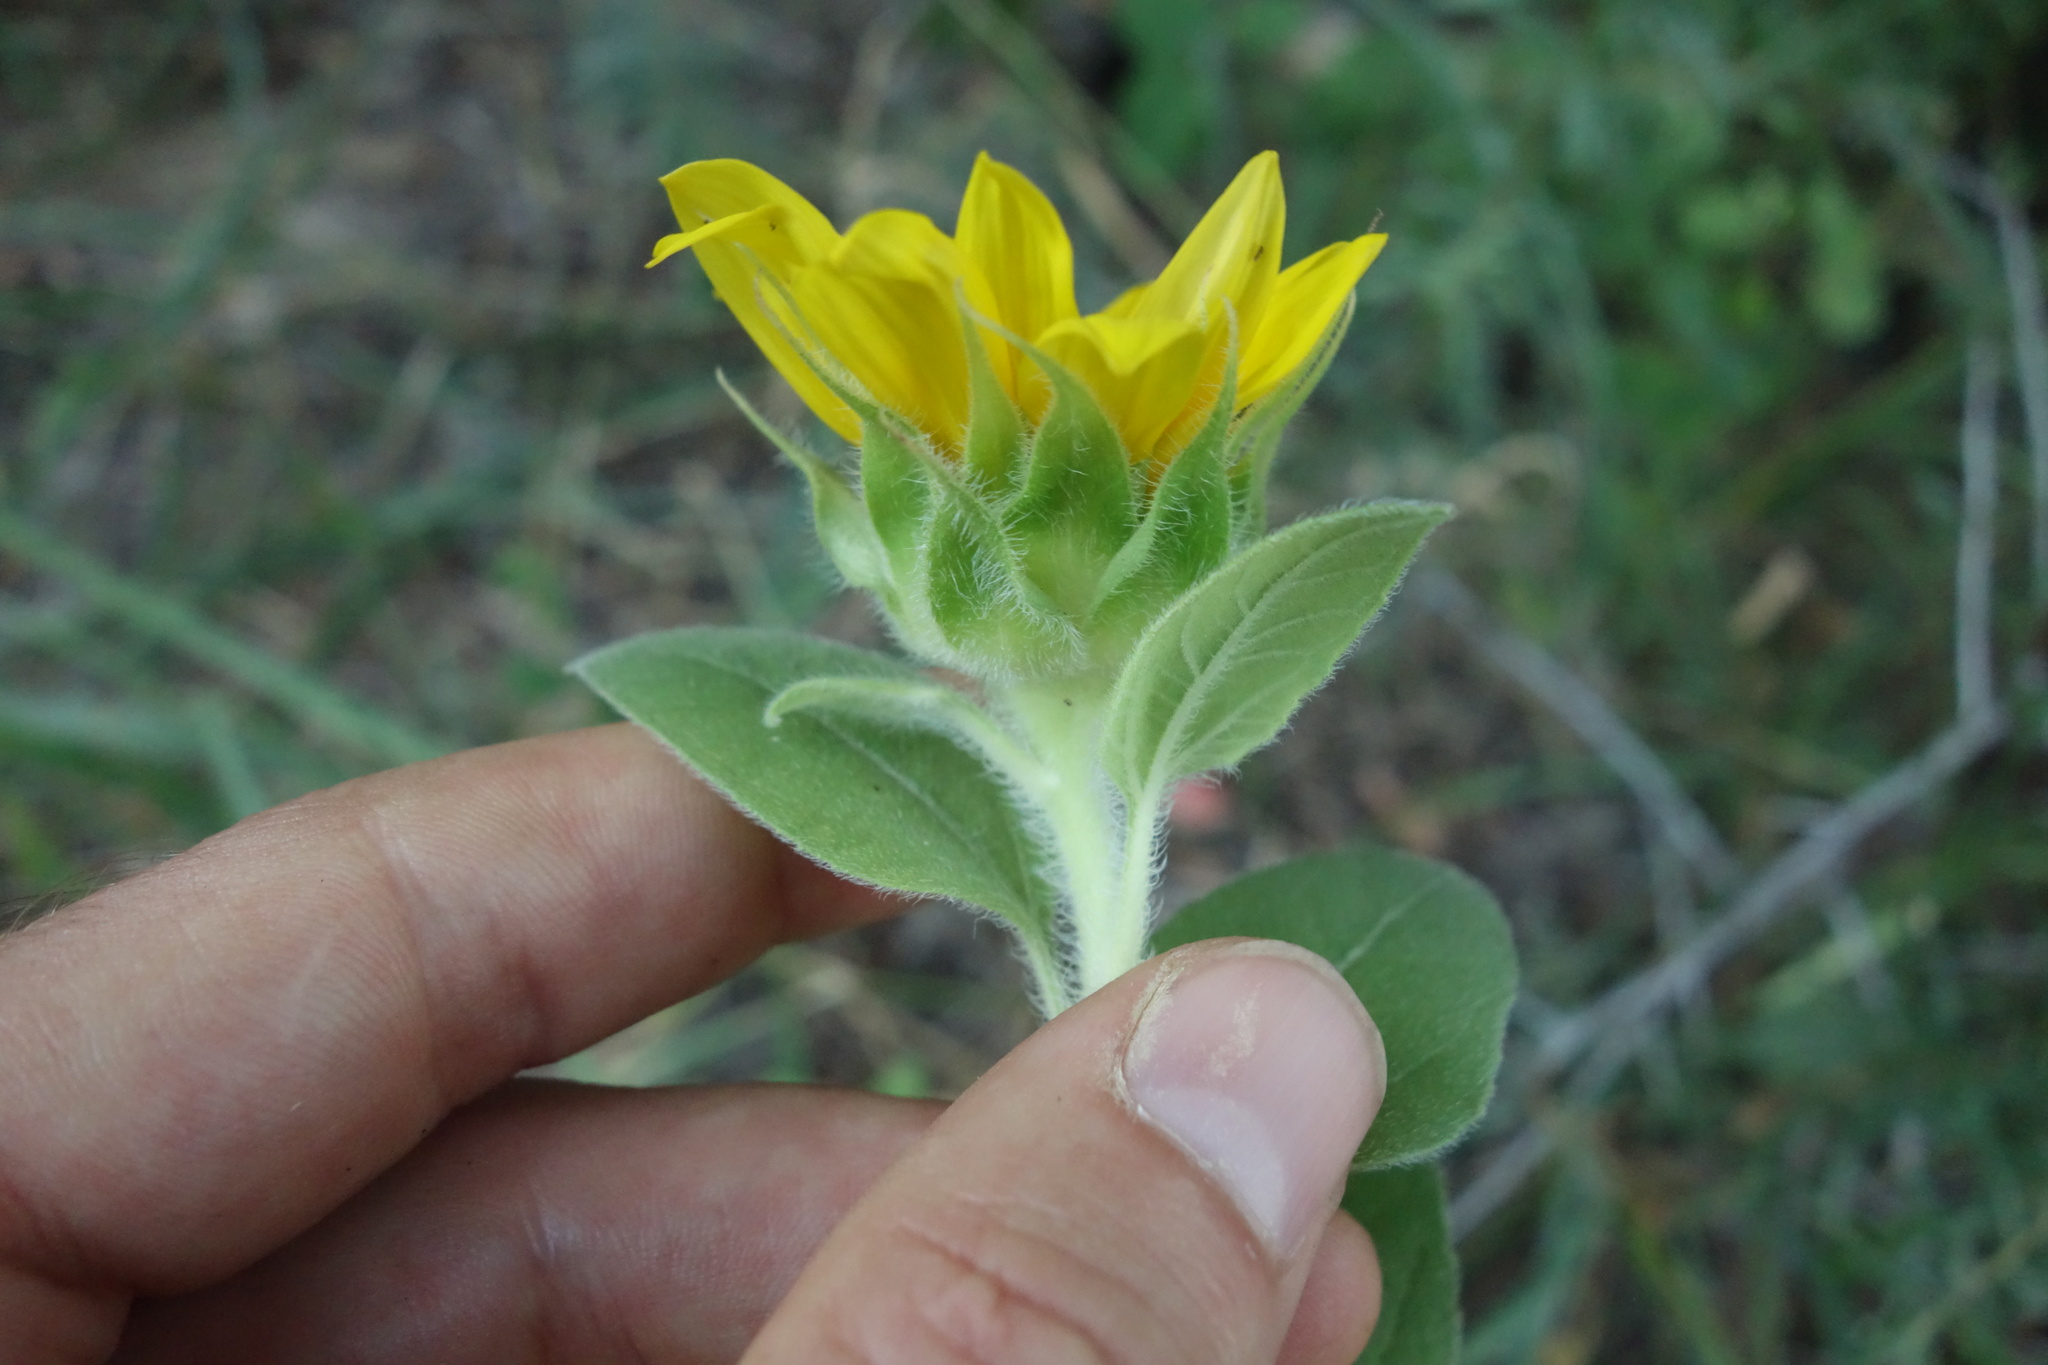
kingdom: Plantae
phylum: Tracheophyta
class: Magnoliopsida
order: Asterales
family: Asteraceae
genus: Helianthus
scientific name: Helianthus annuus
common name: Sunflower
